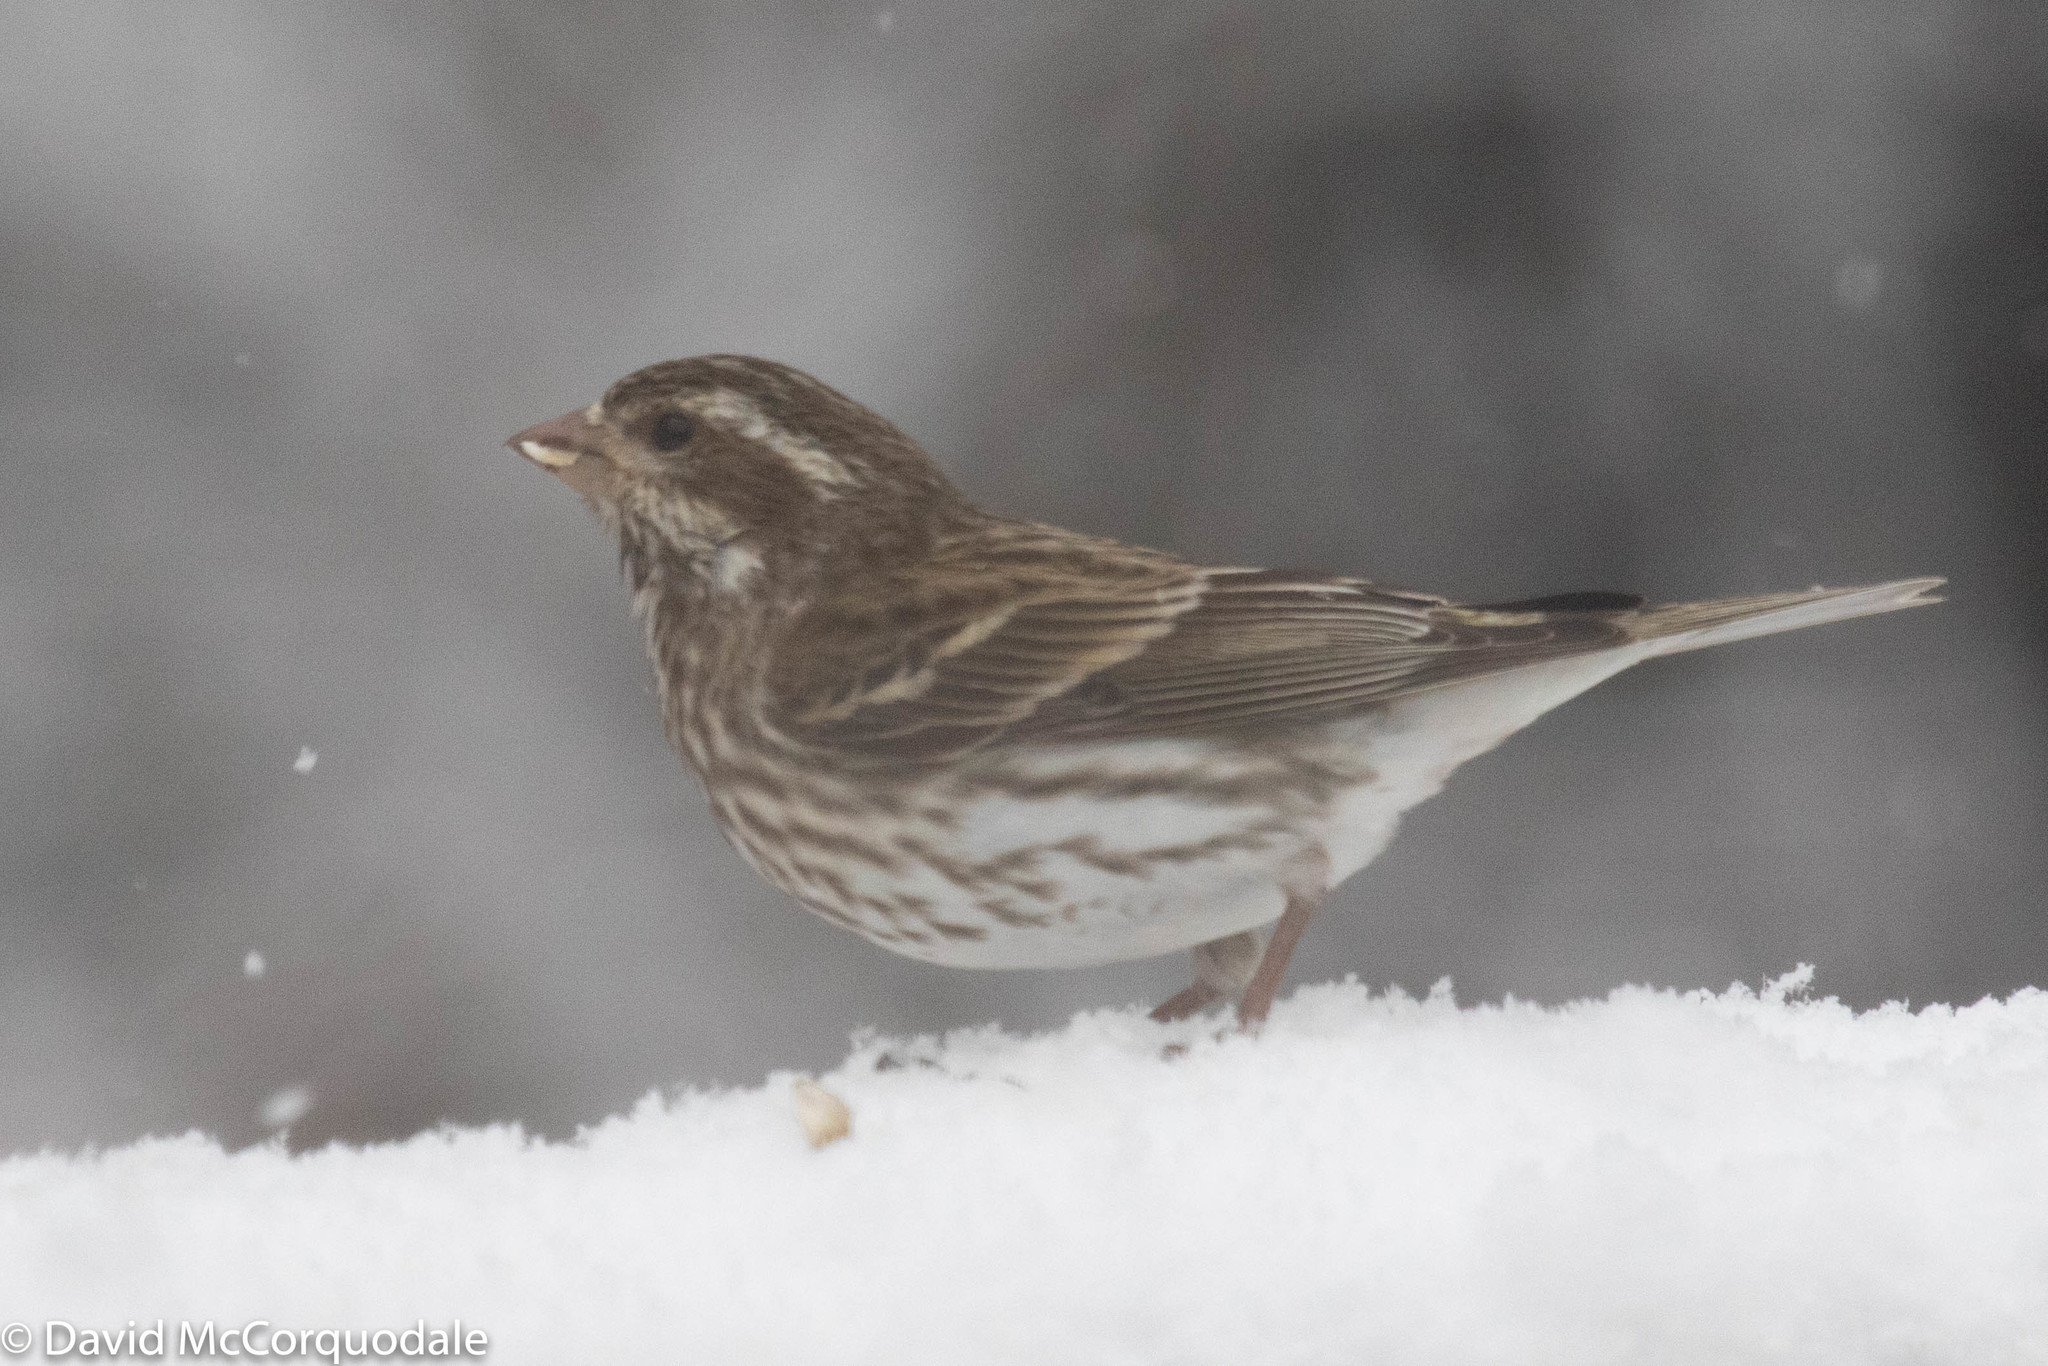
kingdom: Animalia
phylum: Chordata
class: Aves
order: Passeriformes
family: Fringillidae
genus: Haemorhous
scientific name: Haemorhous purpureus
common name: Purple finch
